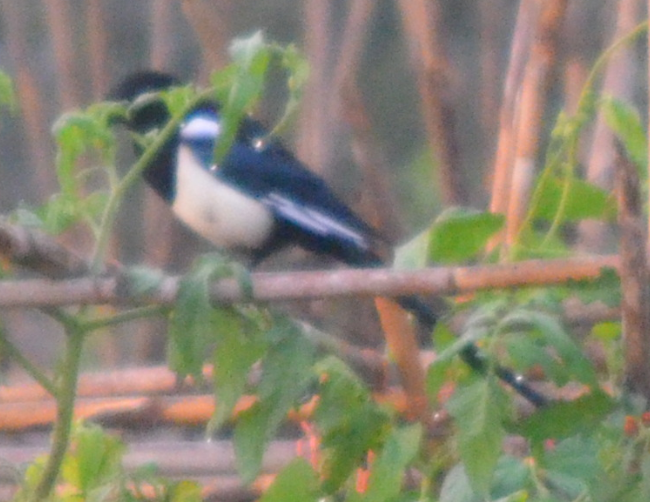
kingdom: Animalia
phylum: Chordata
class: Aves
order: Passeriformes
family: Corvidae
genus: Pica
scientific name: Pica pica
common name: Eurasian magpie
